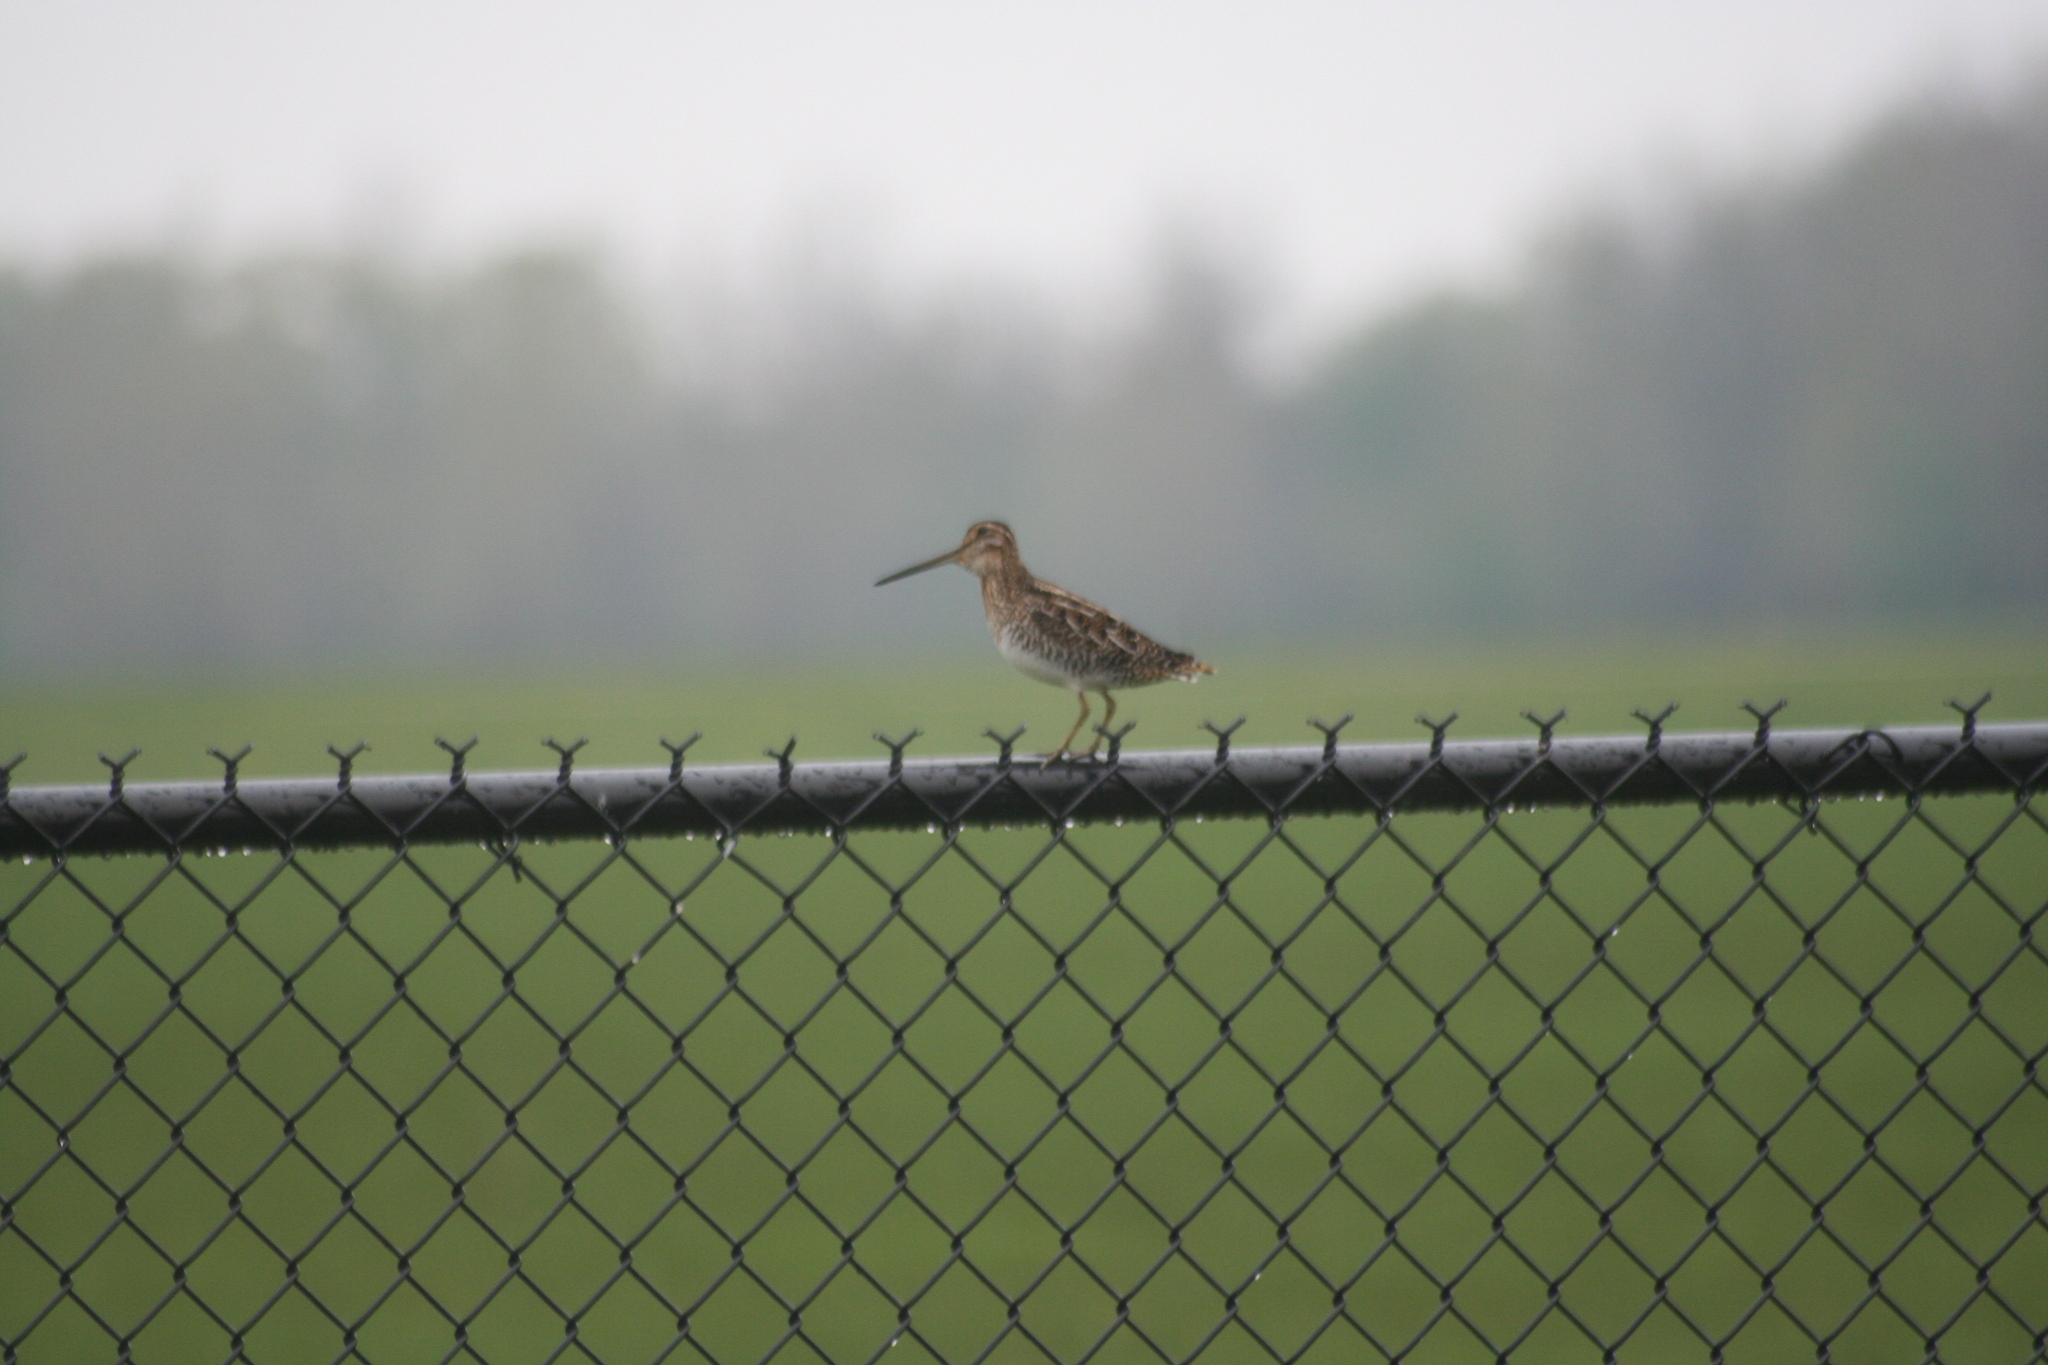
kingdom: Animalia
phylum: Chordata
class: Aves
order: Charadriiformes
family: Scolopacidae
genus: Gallinago
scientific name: Gallinago delicata
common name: Wilson's snipe
